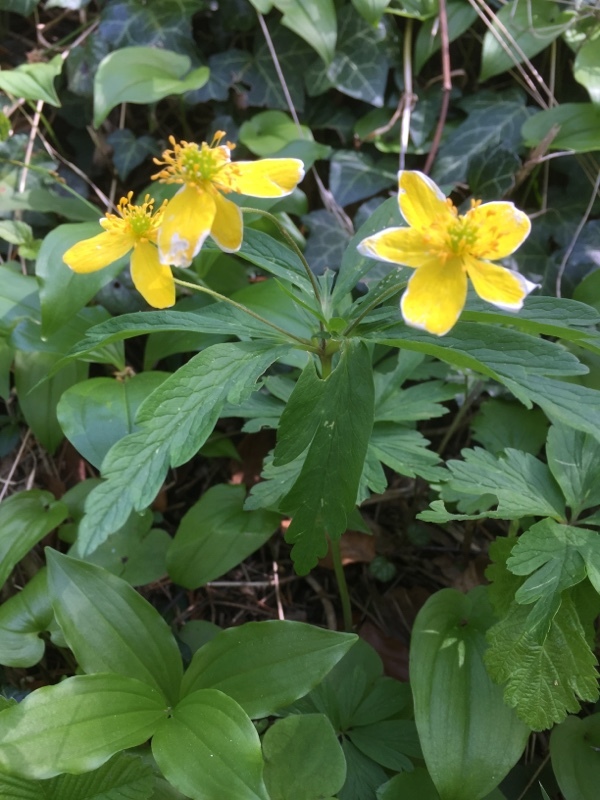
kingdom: Plantae
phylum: Tracheophyta
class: Magnoliopsida
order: Ranunculales
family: Ranunculaceae
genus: Anemone
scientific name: Anemone ranunculoides
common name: Yellow anemone
